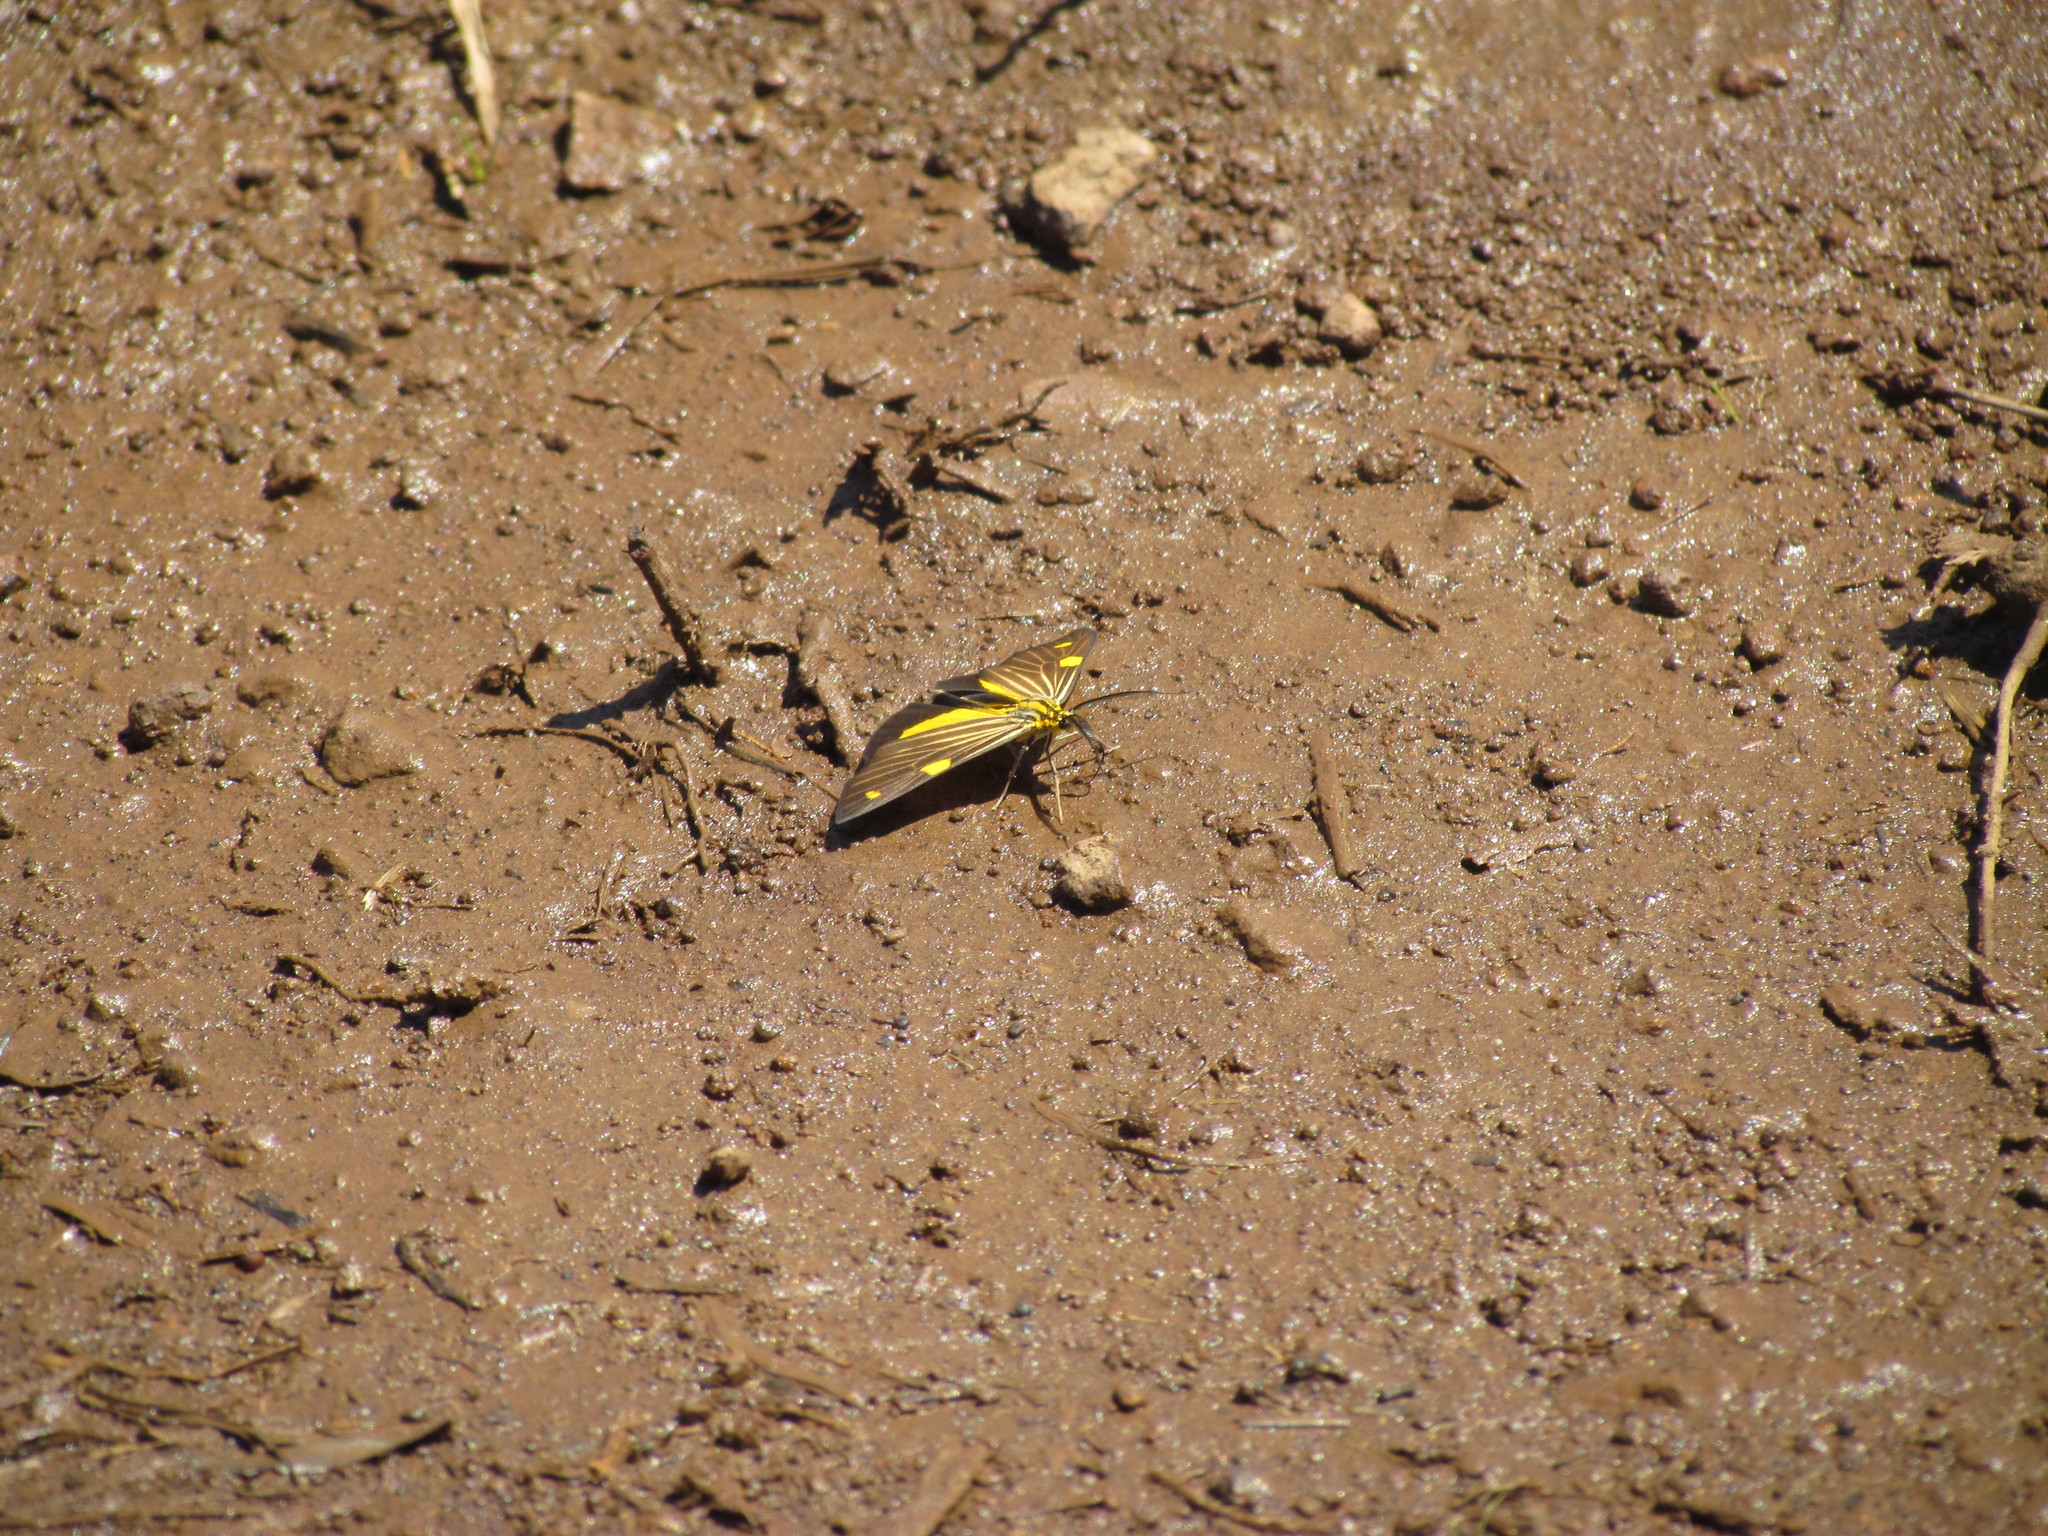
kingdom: Animalia
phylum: Arthropoda
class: Insecta
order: Lepidoptera
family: Notodontidae
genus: Phaeochlaena
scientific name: Phaeochlaena
